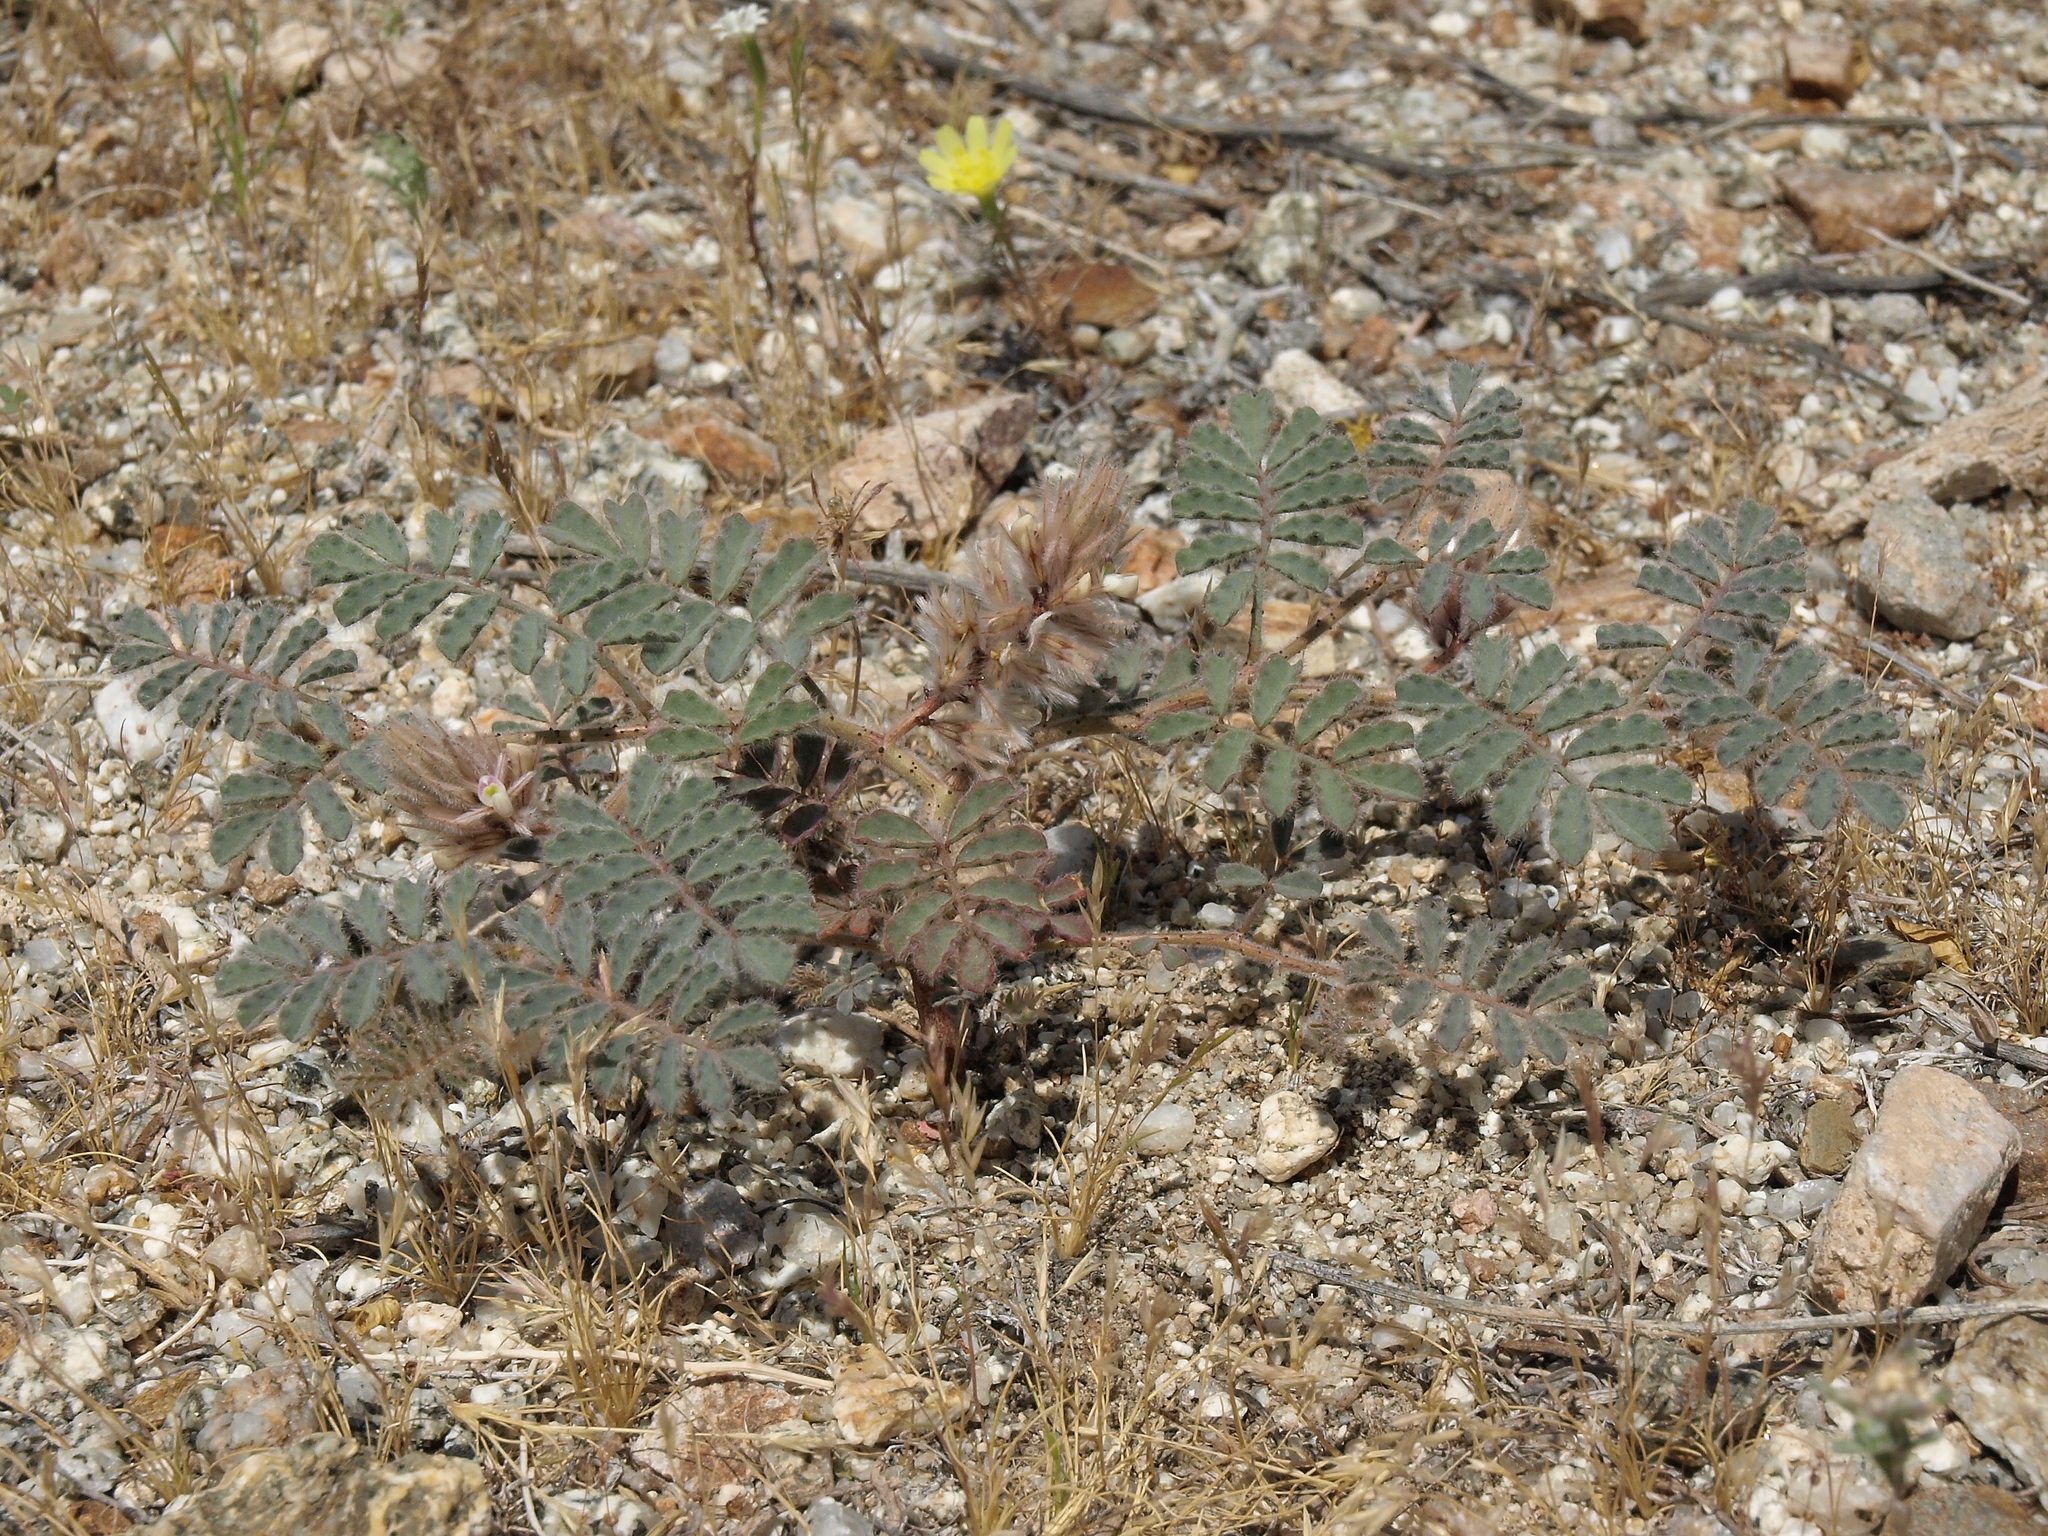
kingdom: Plantae
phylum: Tracheophyta
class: Magnoliopsida
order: Fabales
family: Fabaceae
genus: Dalea
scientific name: Dalea mollissima
